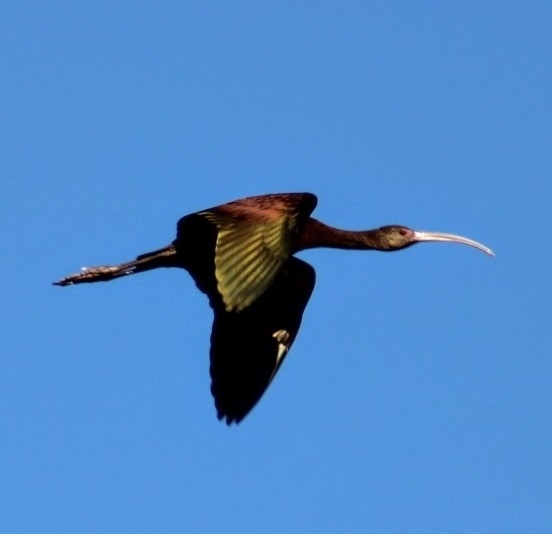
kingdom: Animalia
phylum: Chordata
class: Aves
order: Pelecaniformes
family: Threskiornithidae
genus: Plegadis
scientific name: Plegadis chihi
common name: White-faced ibis
